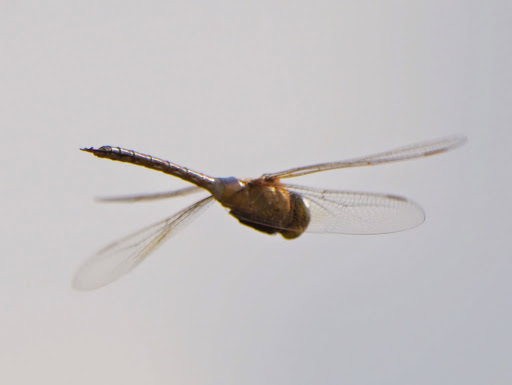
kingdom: Animalia
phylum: Arthropoda
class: Insecta
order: Odonata
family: Aeshnidae
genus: Anax
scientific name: Anax ephippiger
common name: Vagrant emperor
